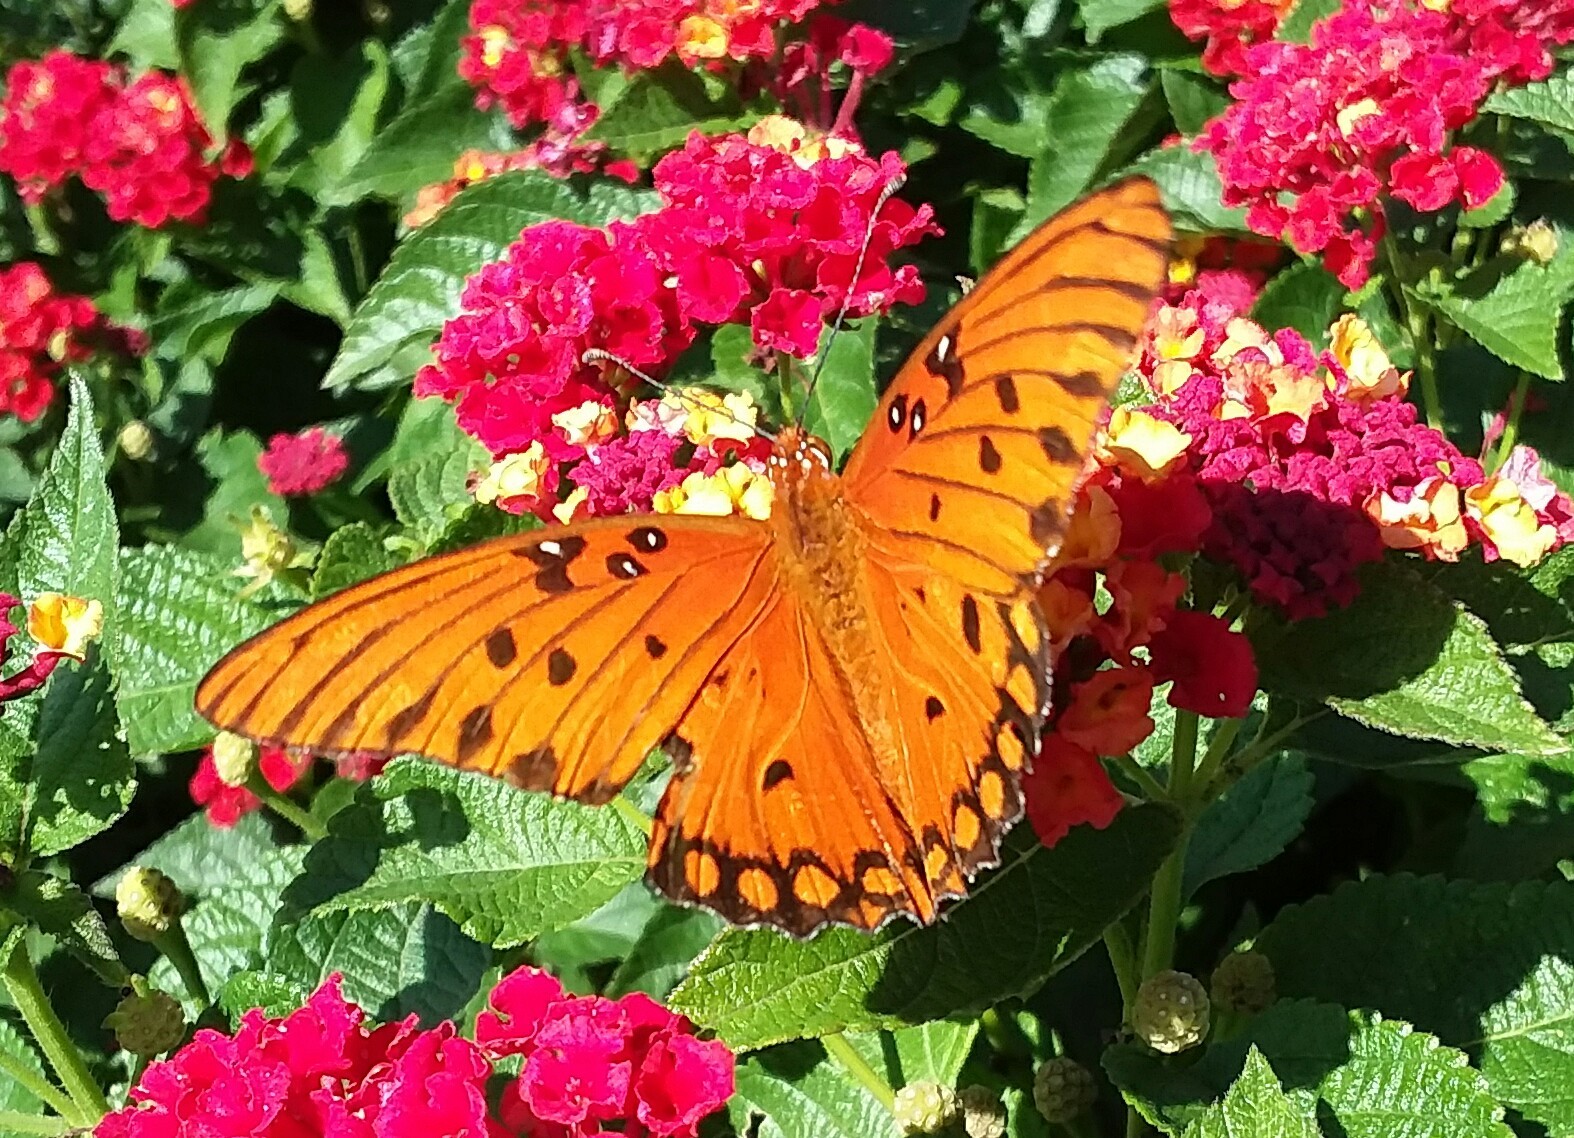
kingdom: Animalia
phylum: Arthropoda
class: Insecta
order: Lepidoptera
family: Nymphalidae
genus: Dione
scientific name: Dione vanillae
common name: Gulf fritillary
